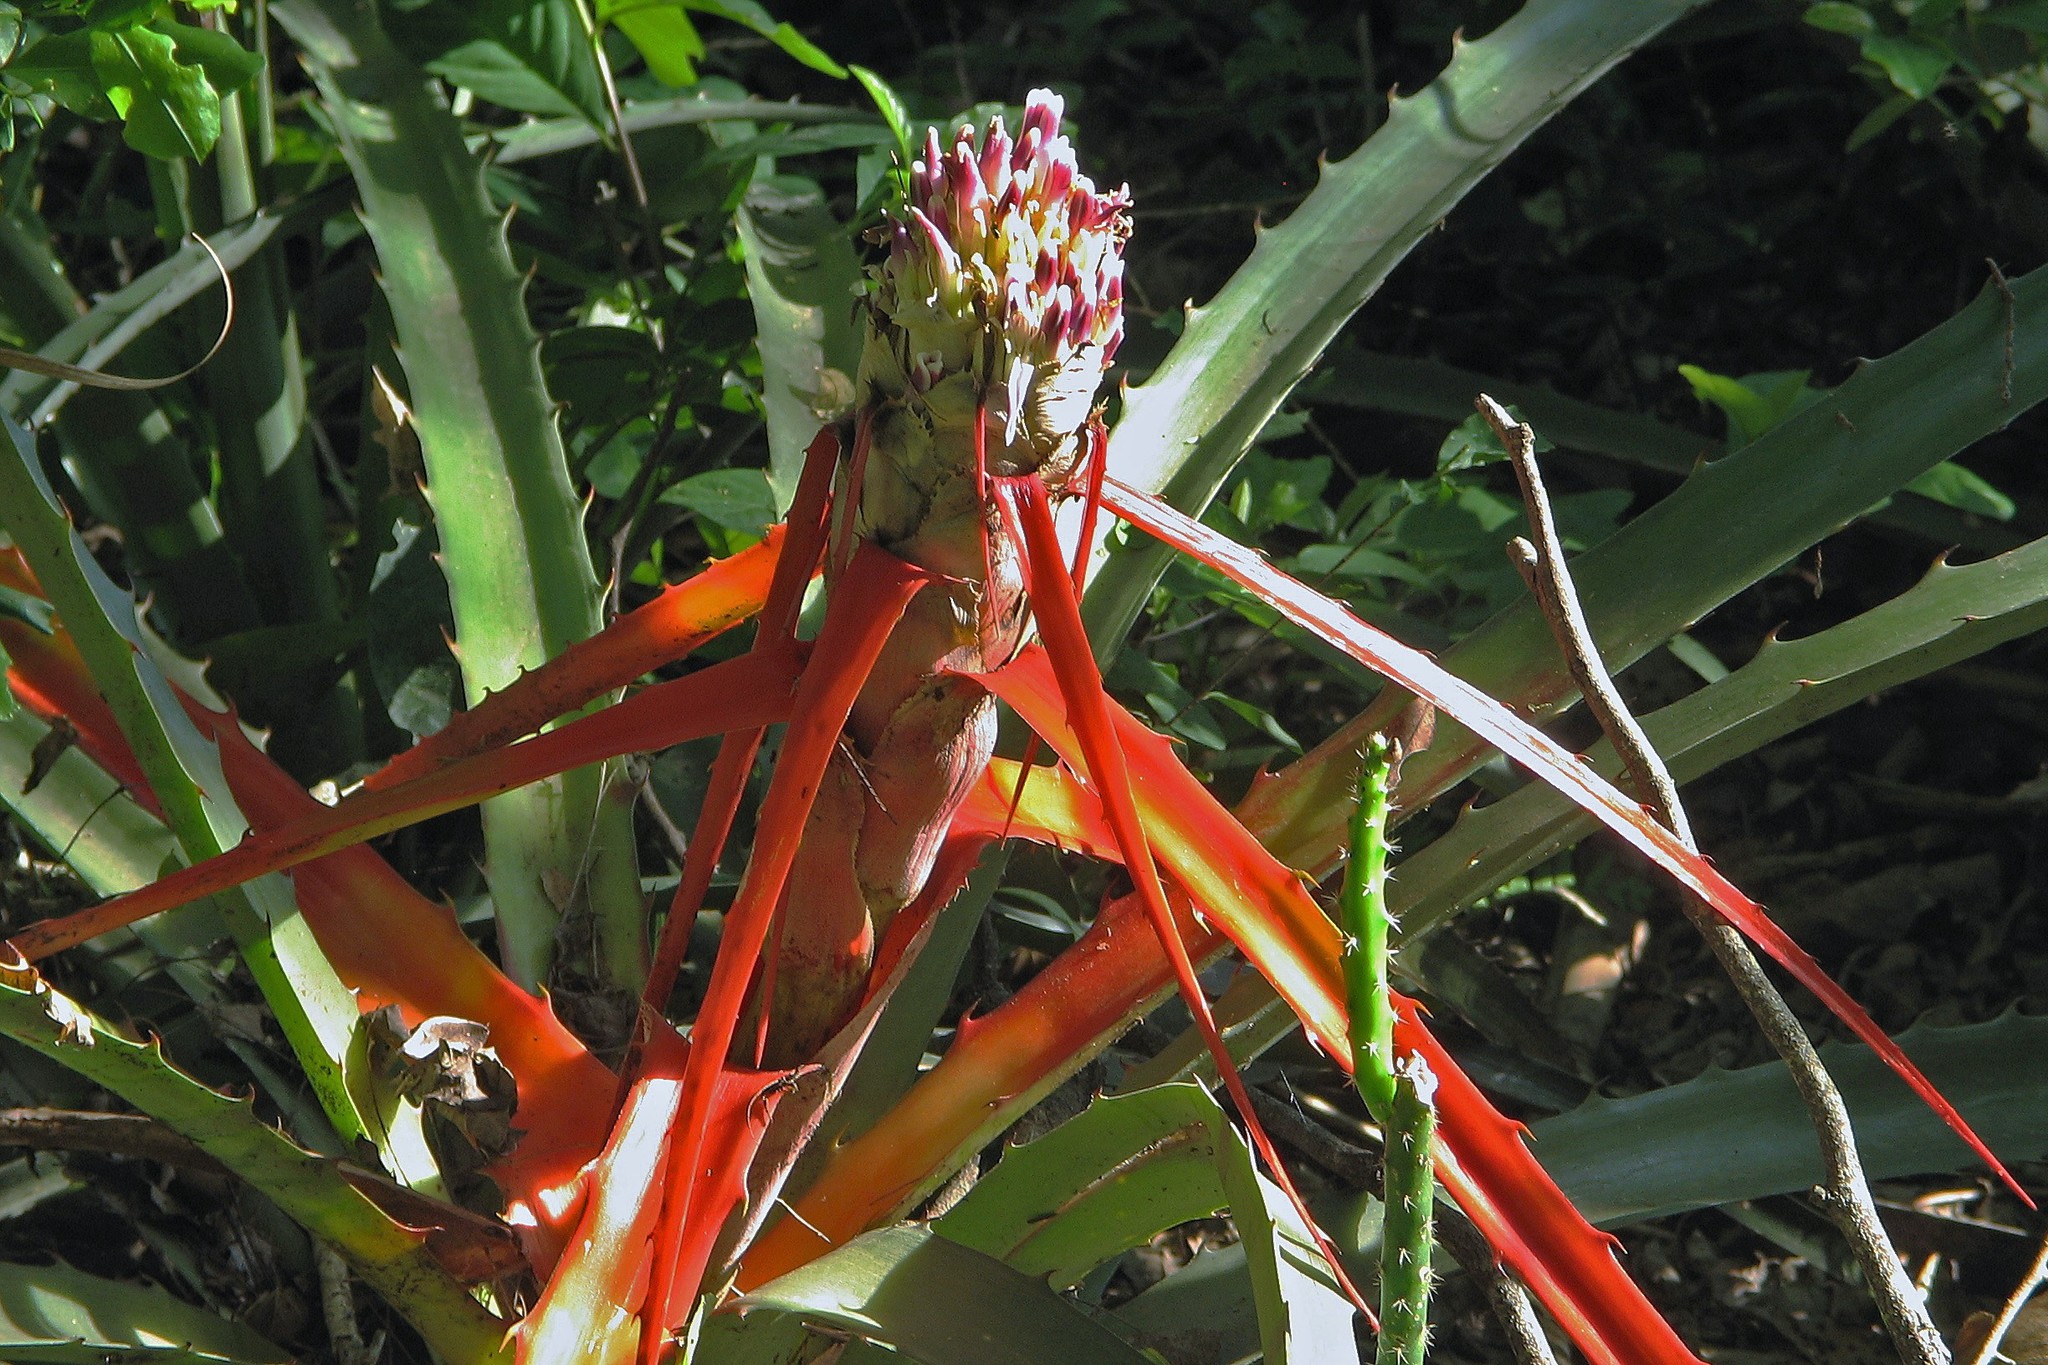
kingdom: Plantae
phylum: Tracheophyta
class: Liliopsida
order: Poales
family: Bromeliaceae
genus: Bromelia
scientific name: Bromelia serra
